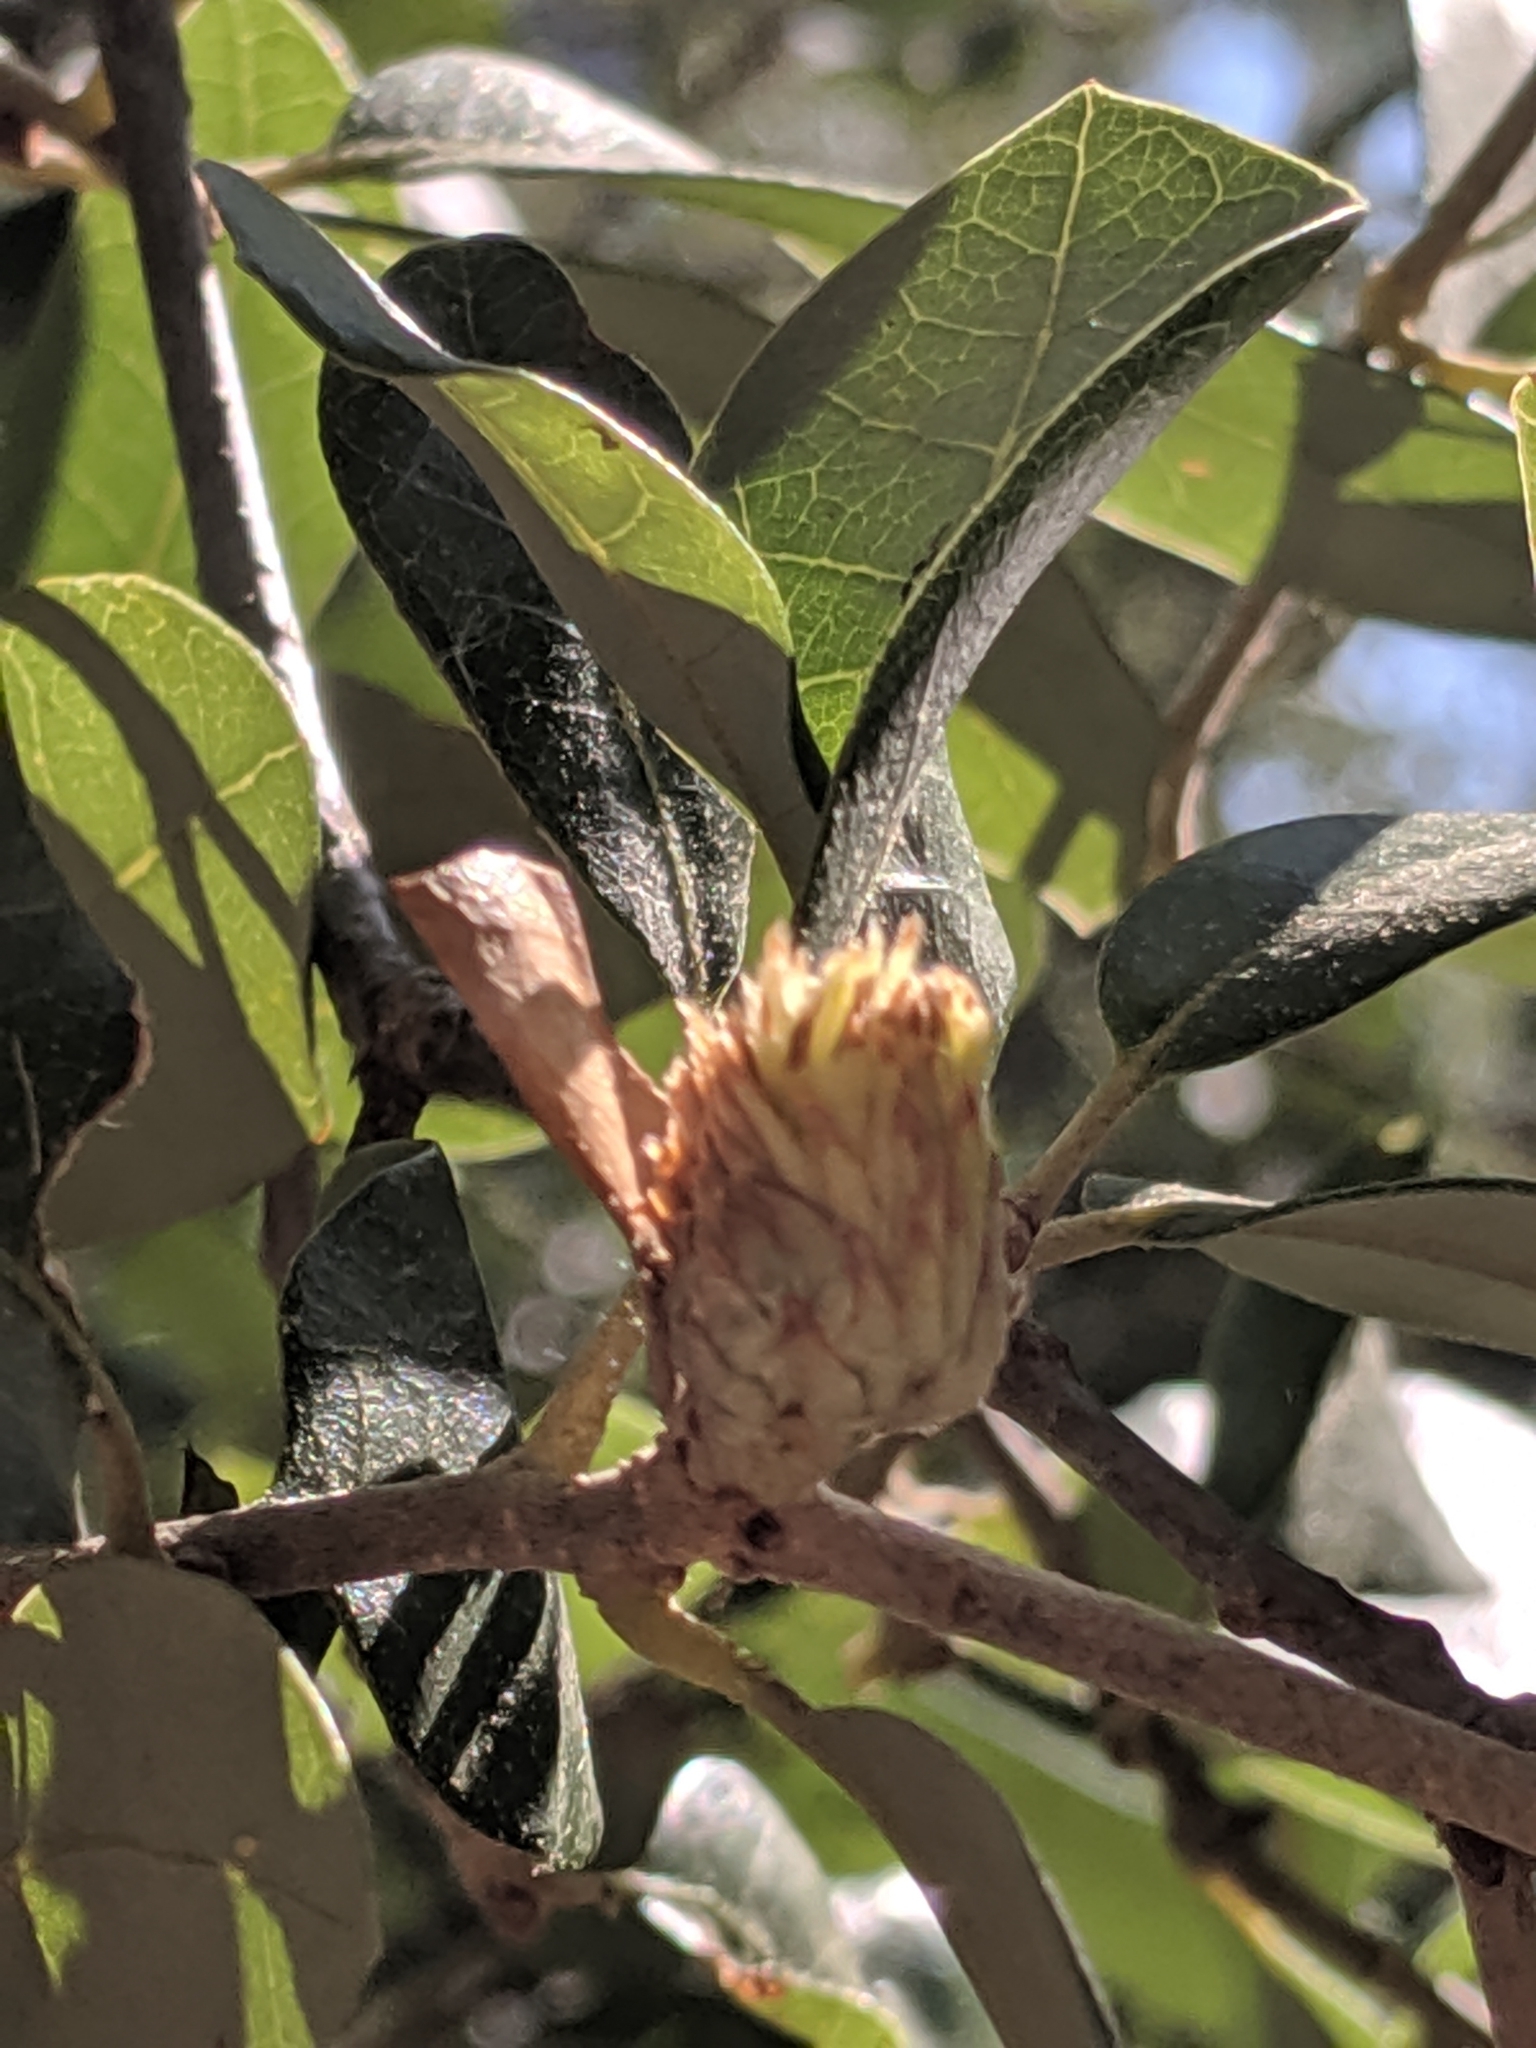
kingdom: Animalia
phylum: Arthropoda
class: Insecta
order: Hymenoptera
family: Cynipidae
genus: Andricus
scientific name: Andricus quercusfoliatus
